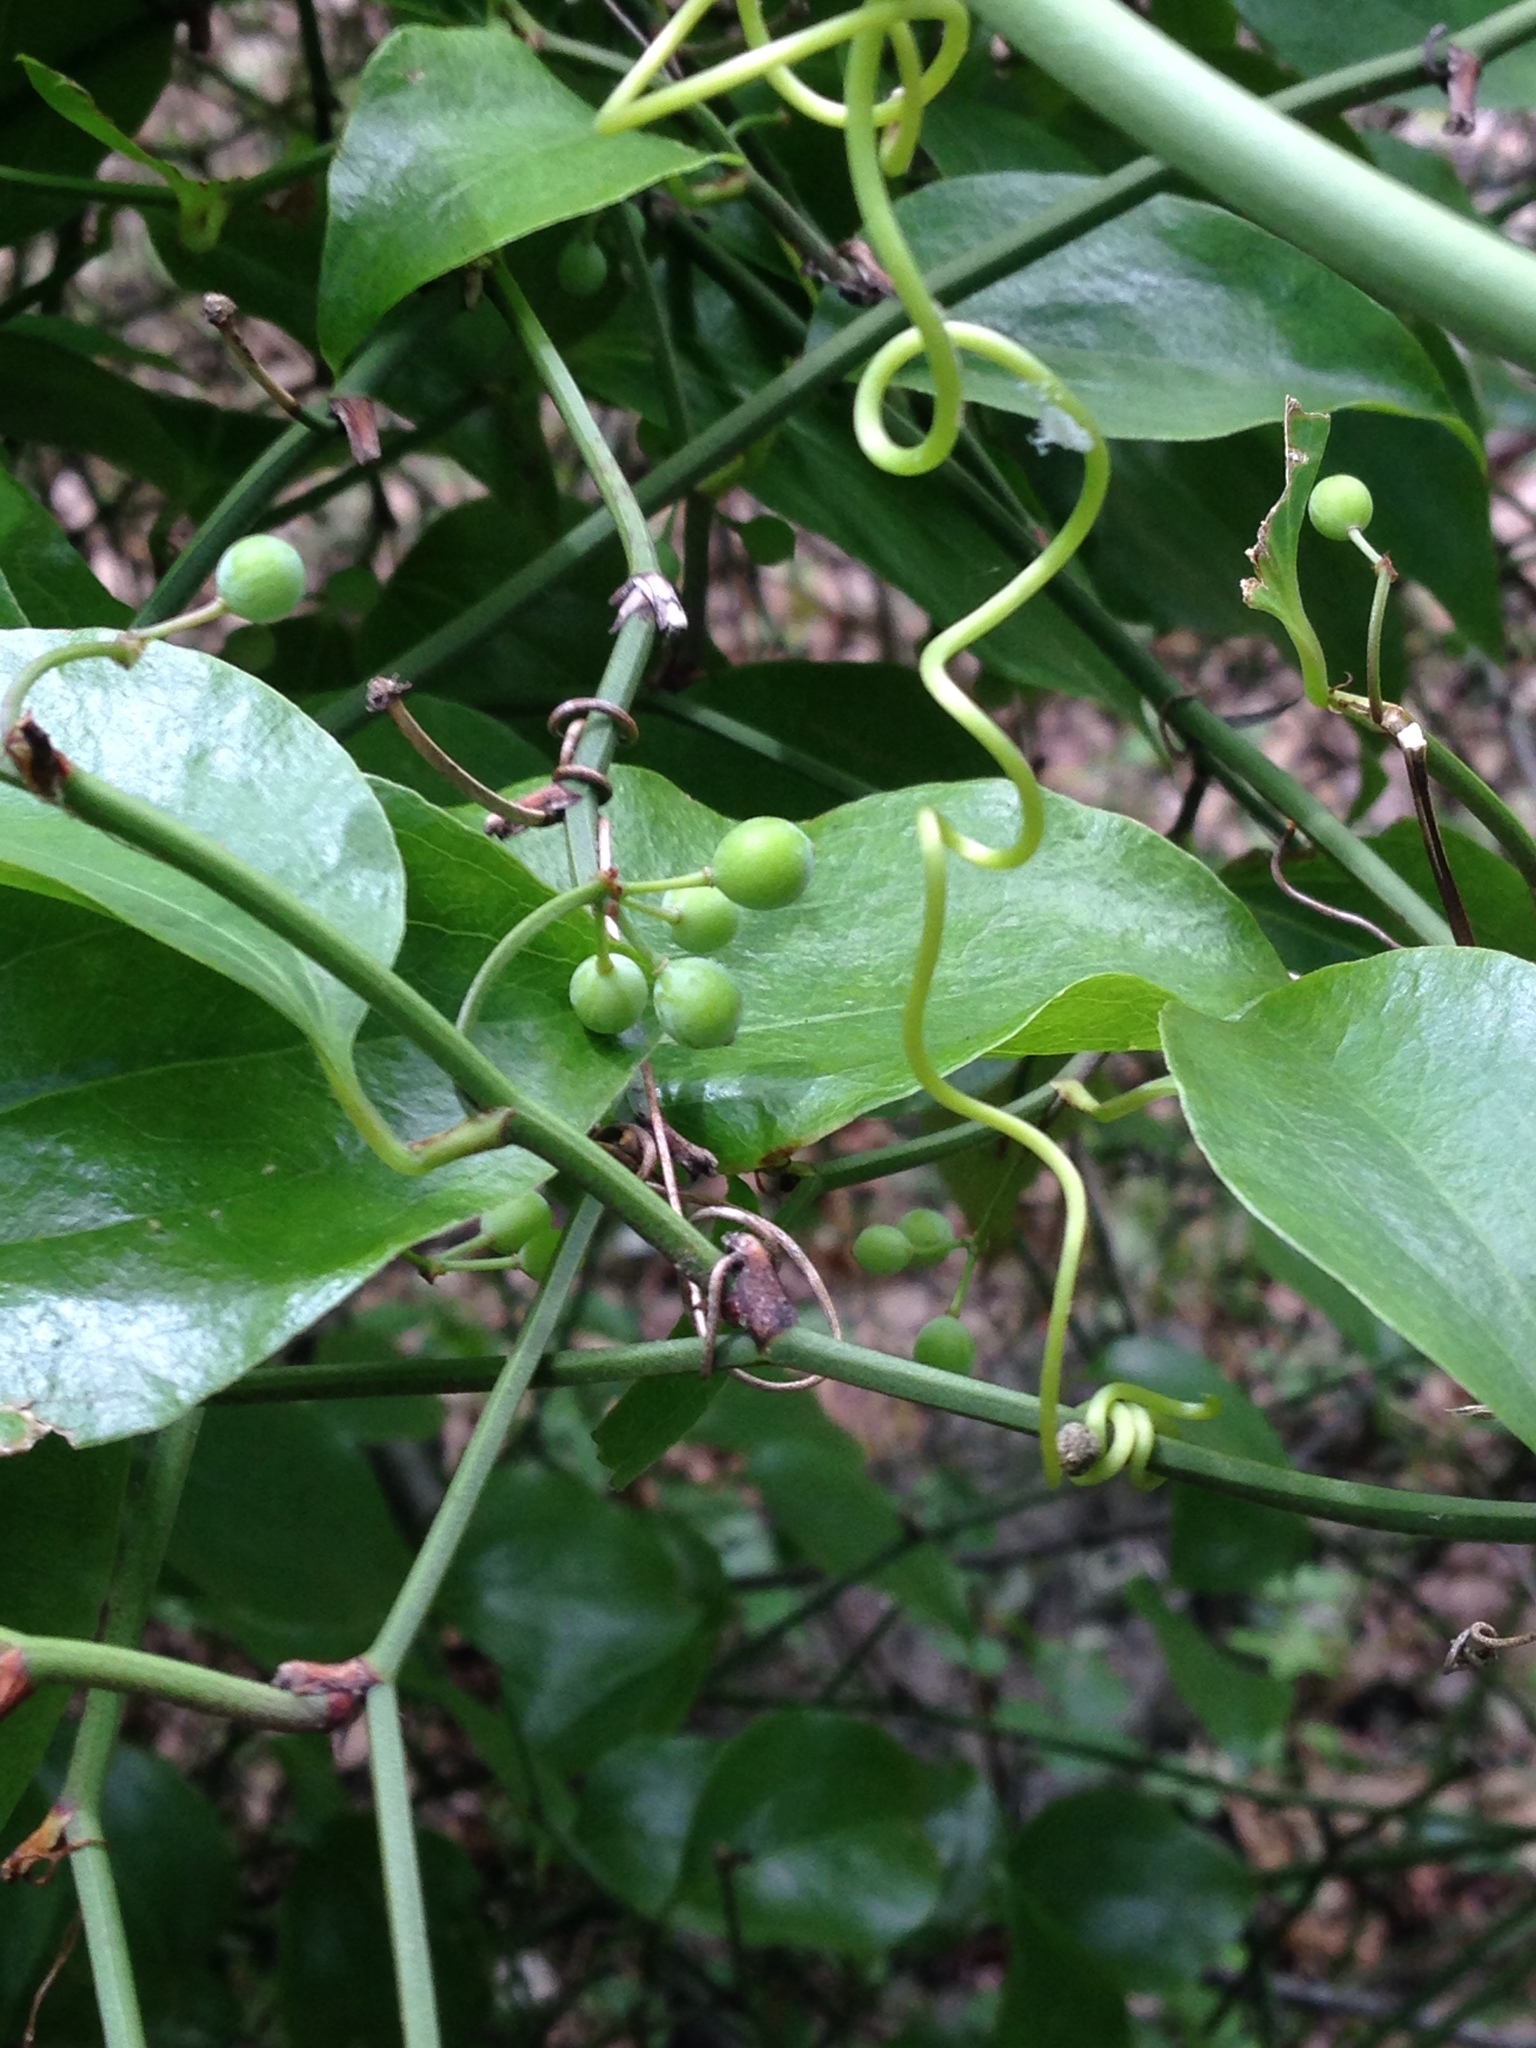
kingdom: Plantae
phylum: Tracheophyta
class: Liliopsida
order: Liliales
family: Smilacaceae
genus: Smilax
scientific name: Smilax rotundifolia
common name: Bullbriar
